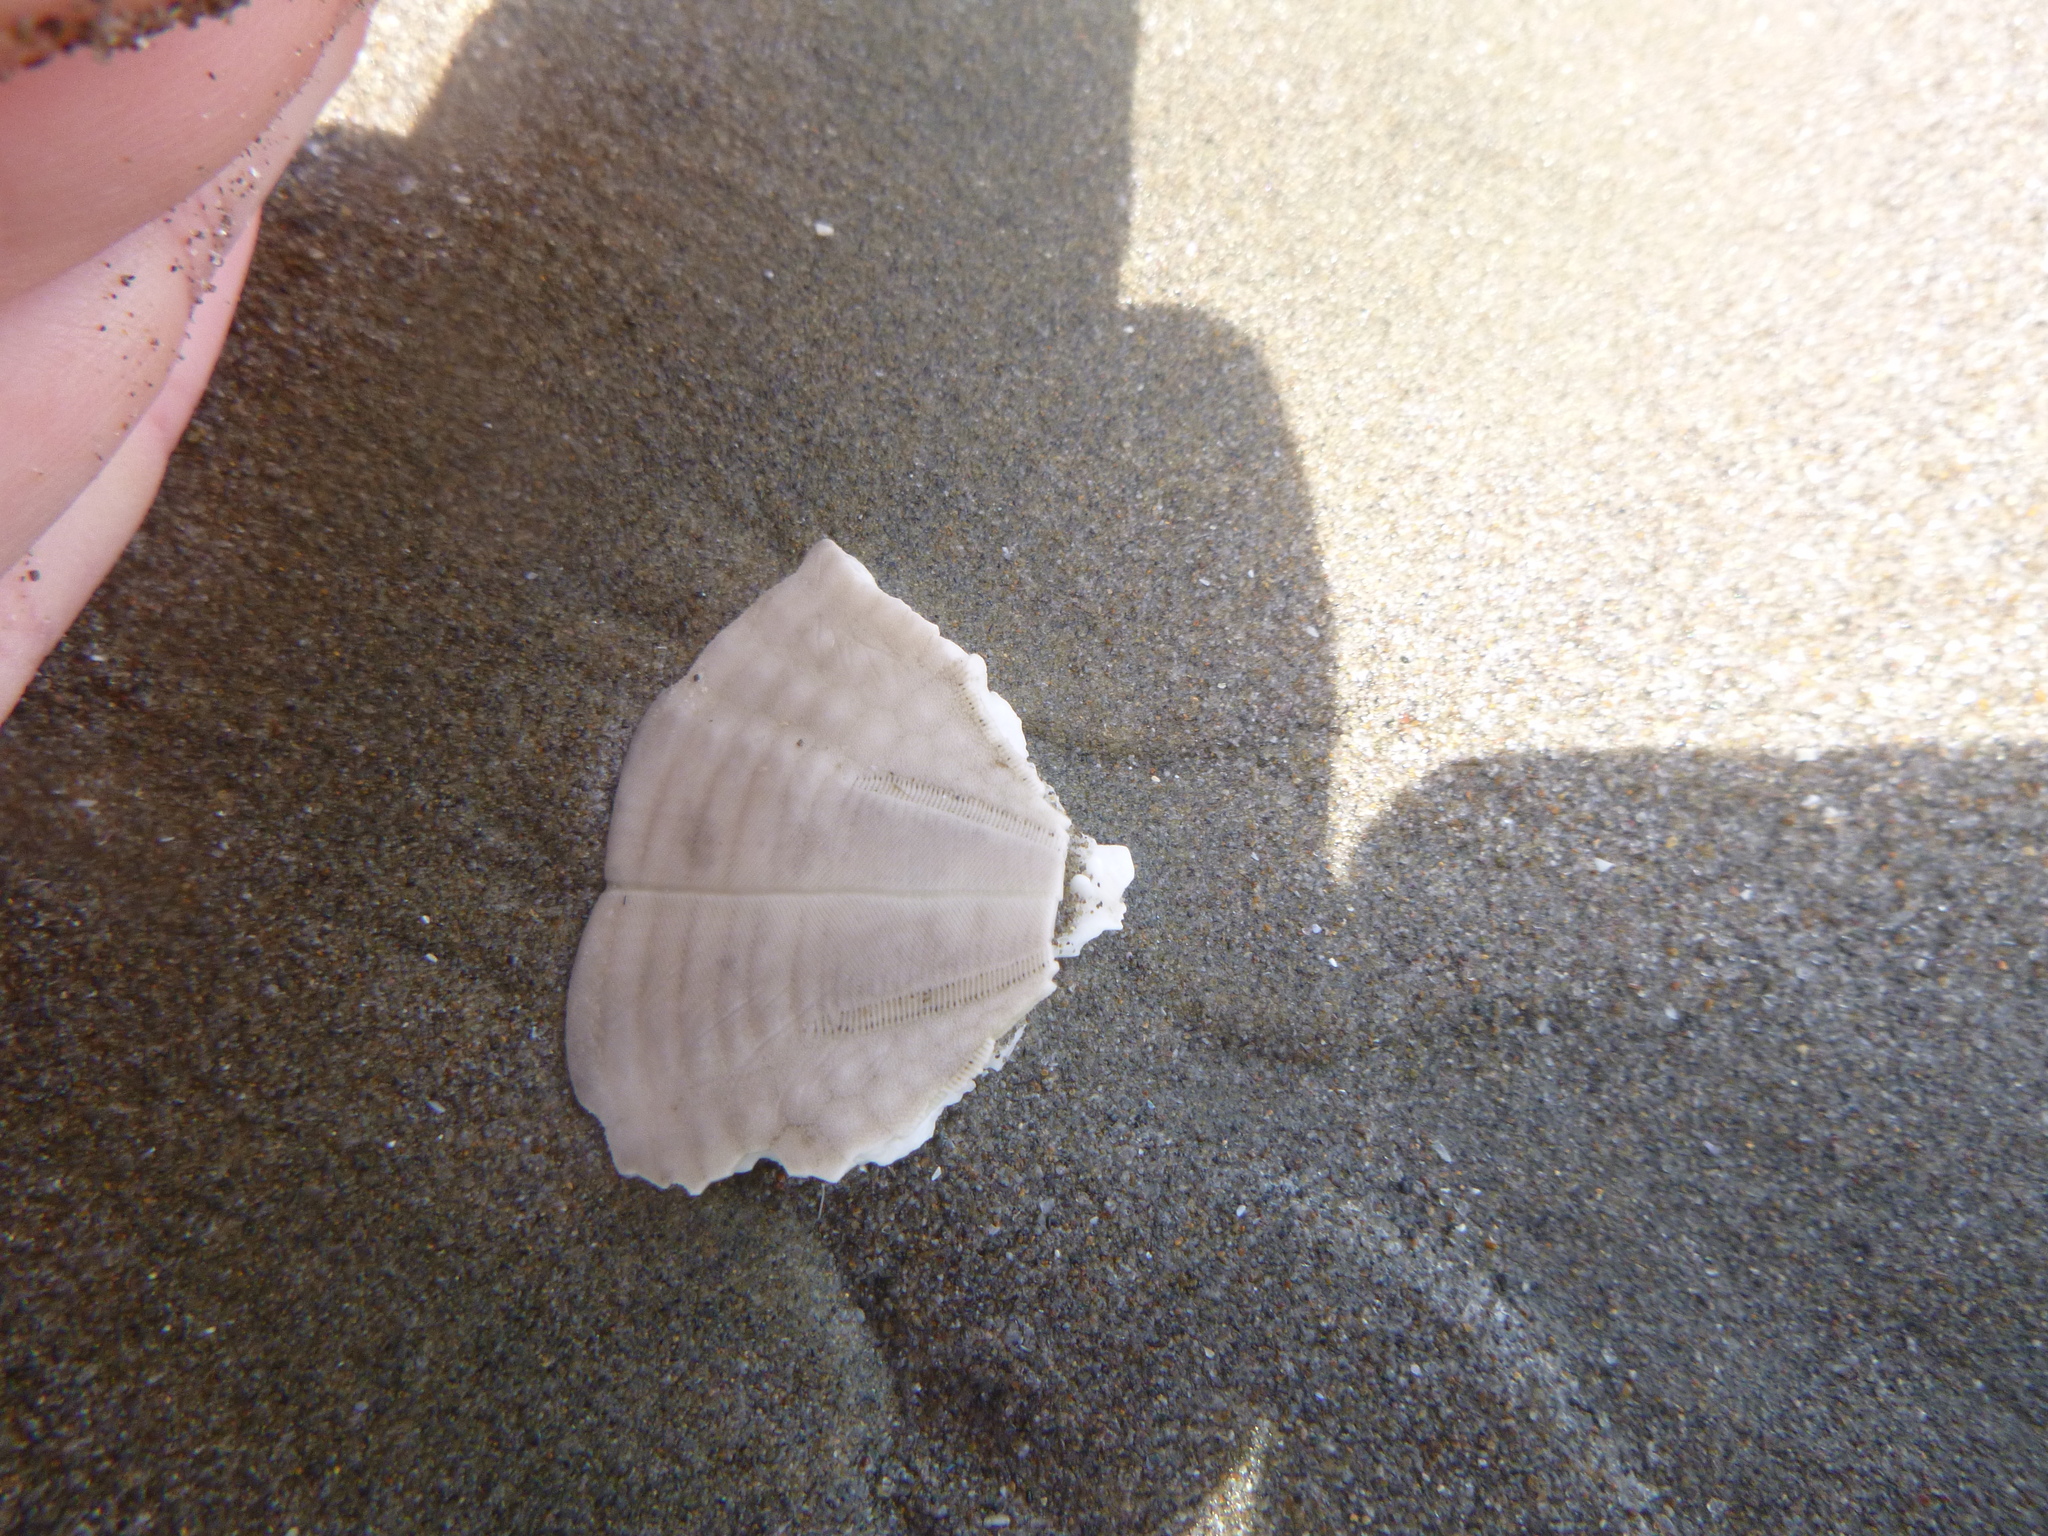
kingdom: Animalia
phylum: Echinodermata
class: Echinoidea
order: Clypeasteroida
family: Clypeasteridae
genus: Fellaster
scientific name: Fellaster zelandiae
